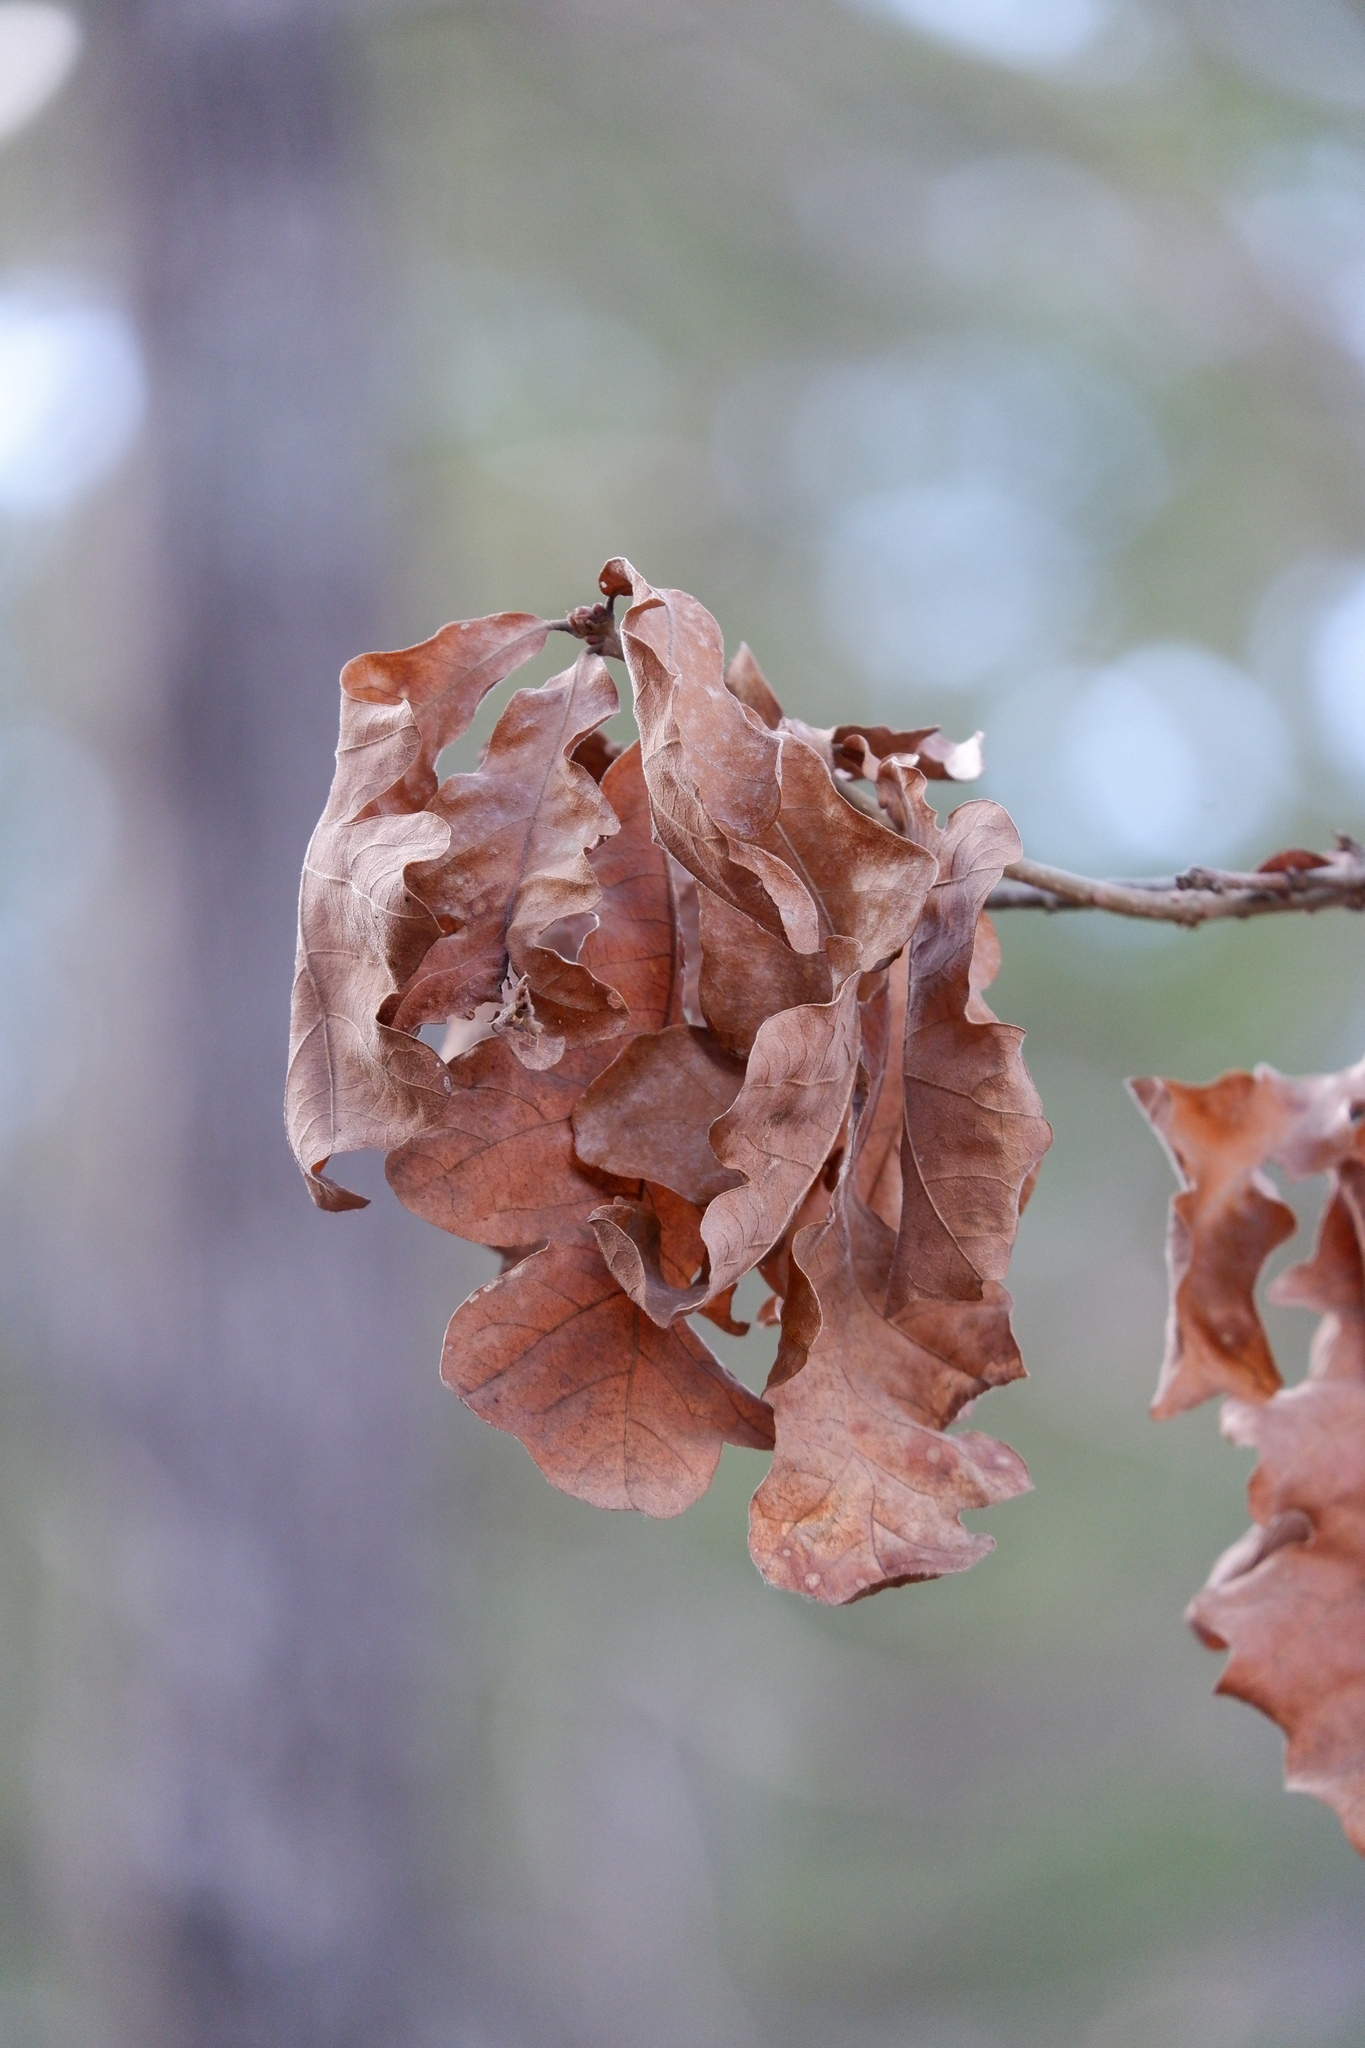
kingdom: Plantae
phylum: Tracheophyta
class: Magnoliopsida
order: Fagales
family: Fagaceae
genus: Quercus
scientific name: Quercus stellata
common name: Post oak
